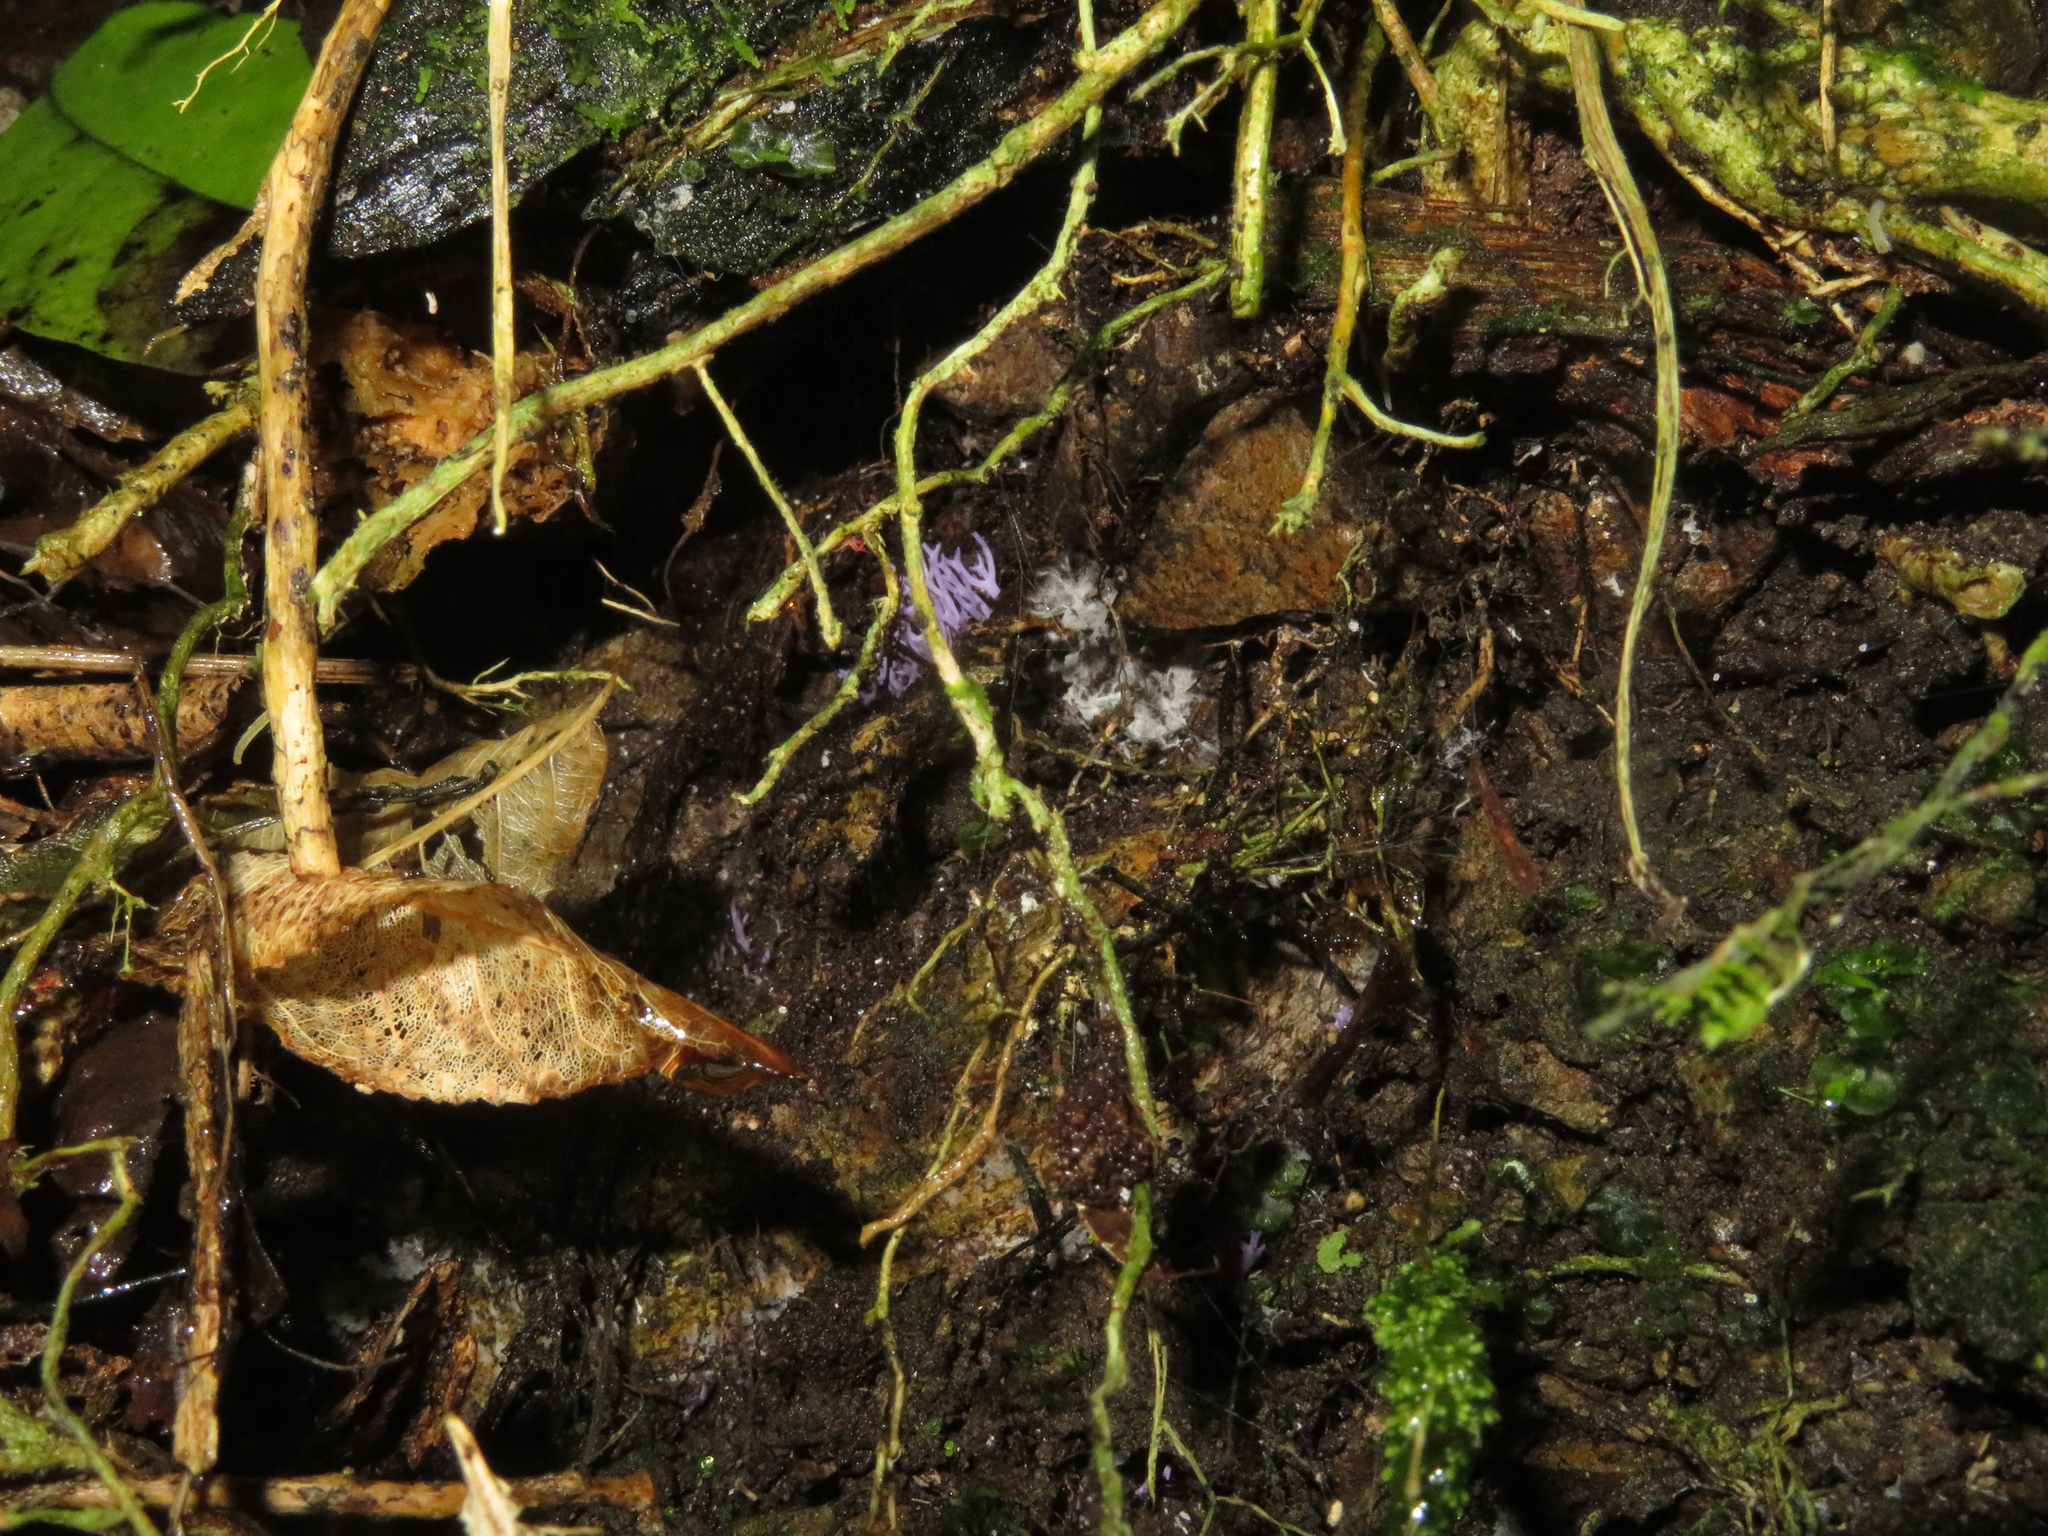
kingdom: Fungi
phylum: Basidiomycota
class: Agaricomycetes
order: Agaricales
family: Clavariaceae
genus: Ramariopsis
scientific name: Ramariopsis pulchella
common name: Lilac coral
